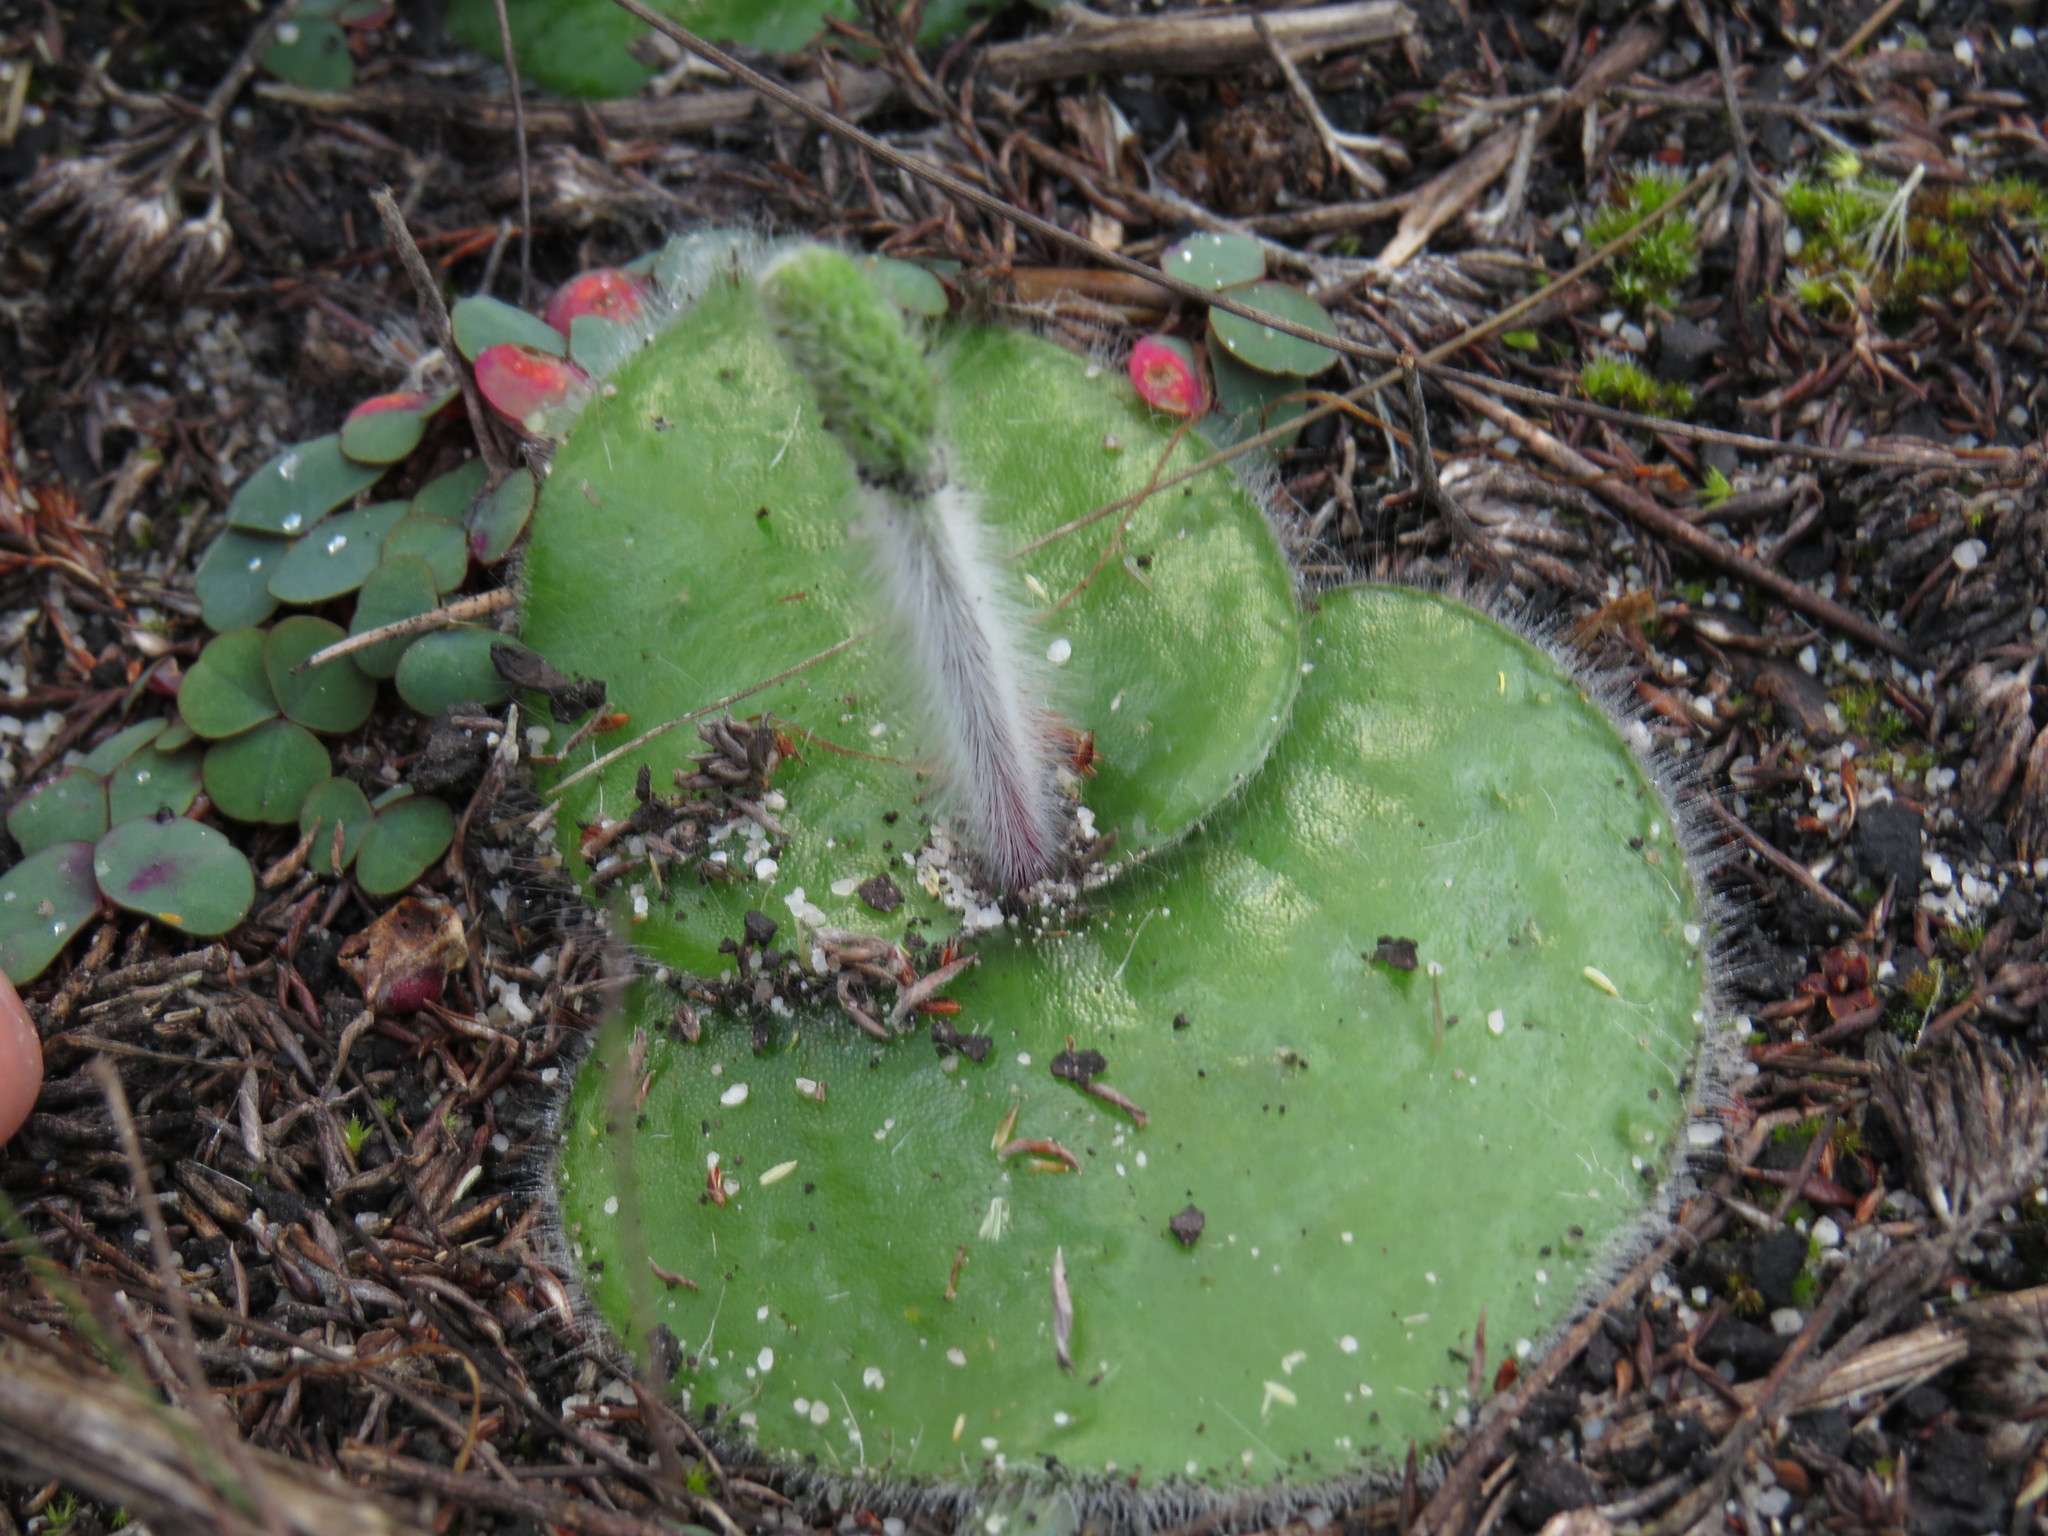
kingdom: Plantae
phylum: Tracheophyta
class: Liliopsida
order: Asparagales
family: Orchidaceae
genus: Holothrix
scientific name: Holothrix villosa
